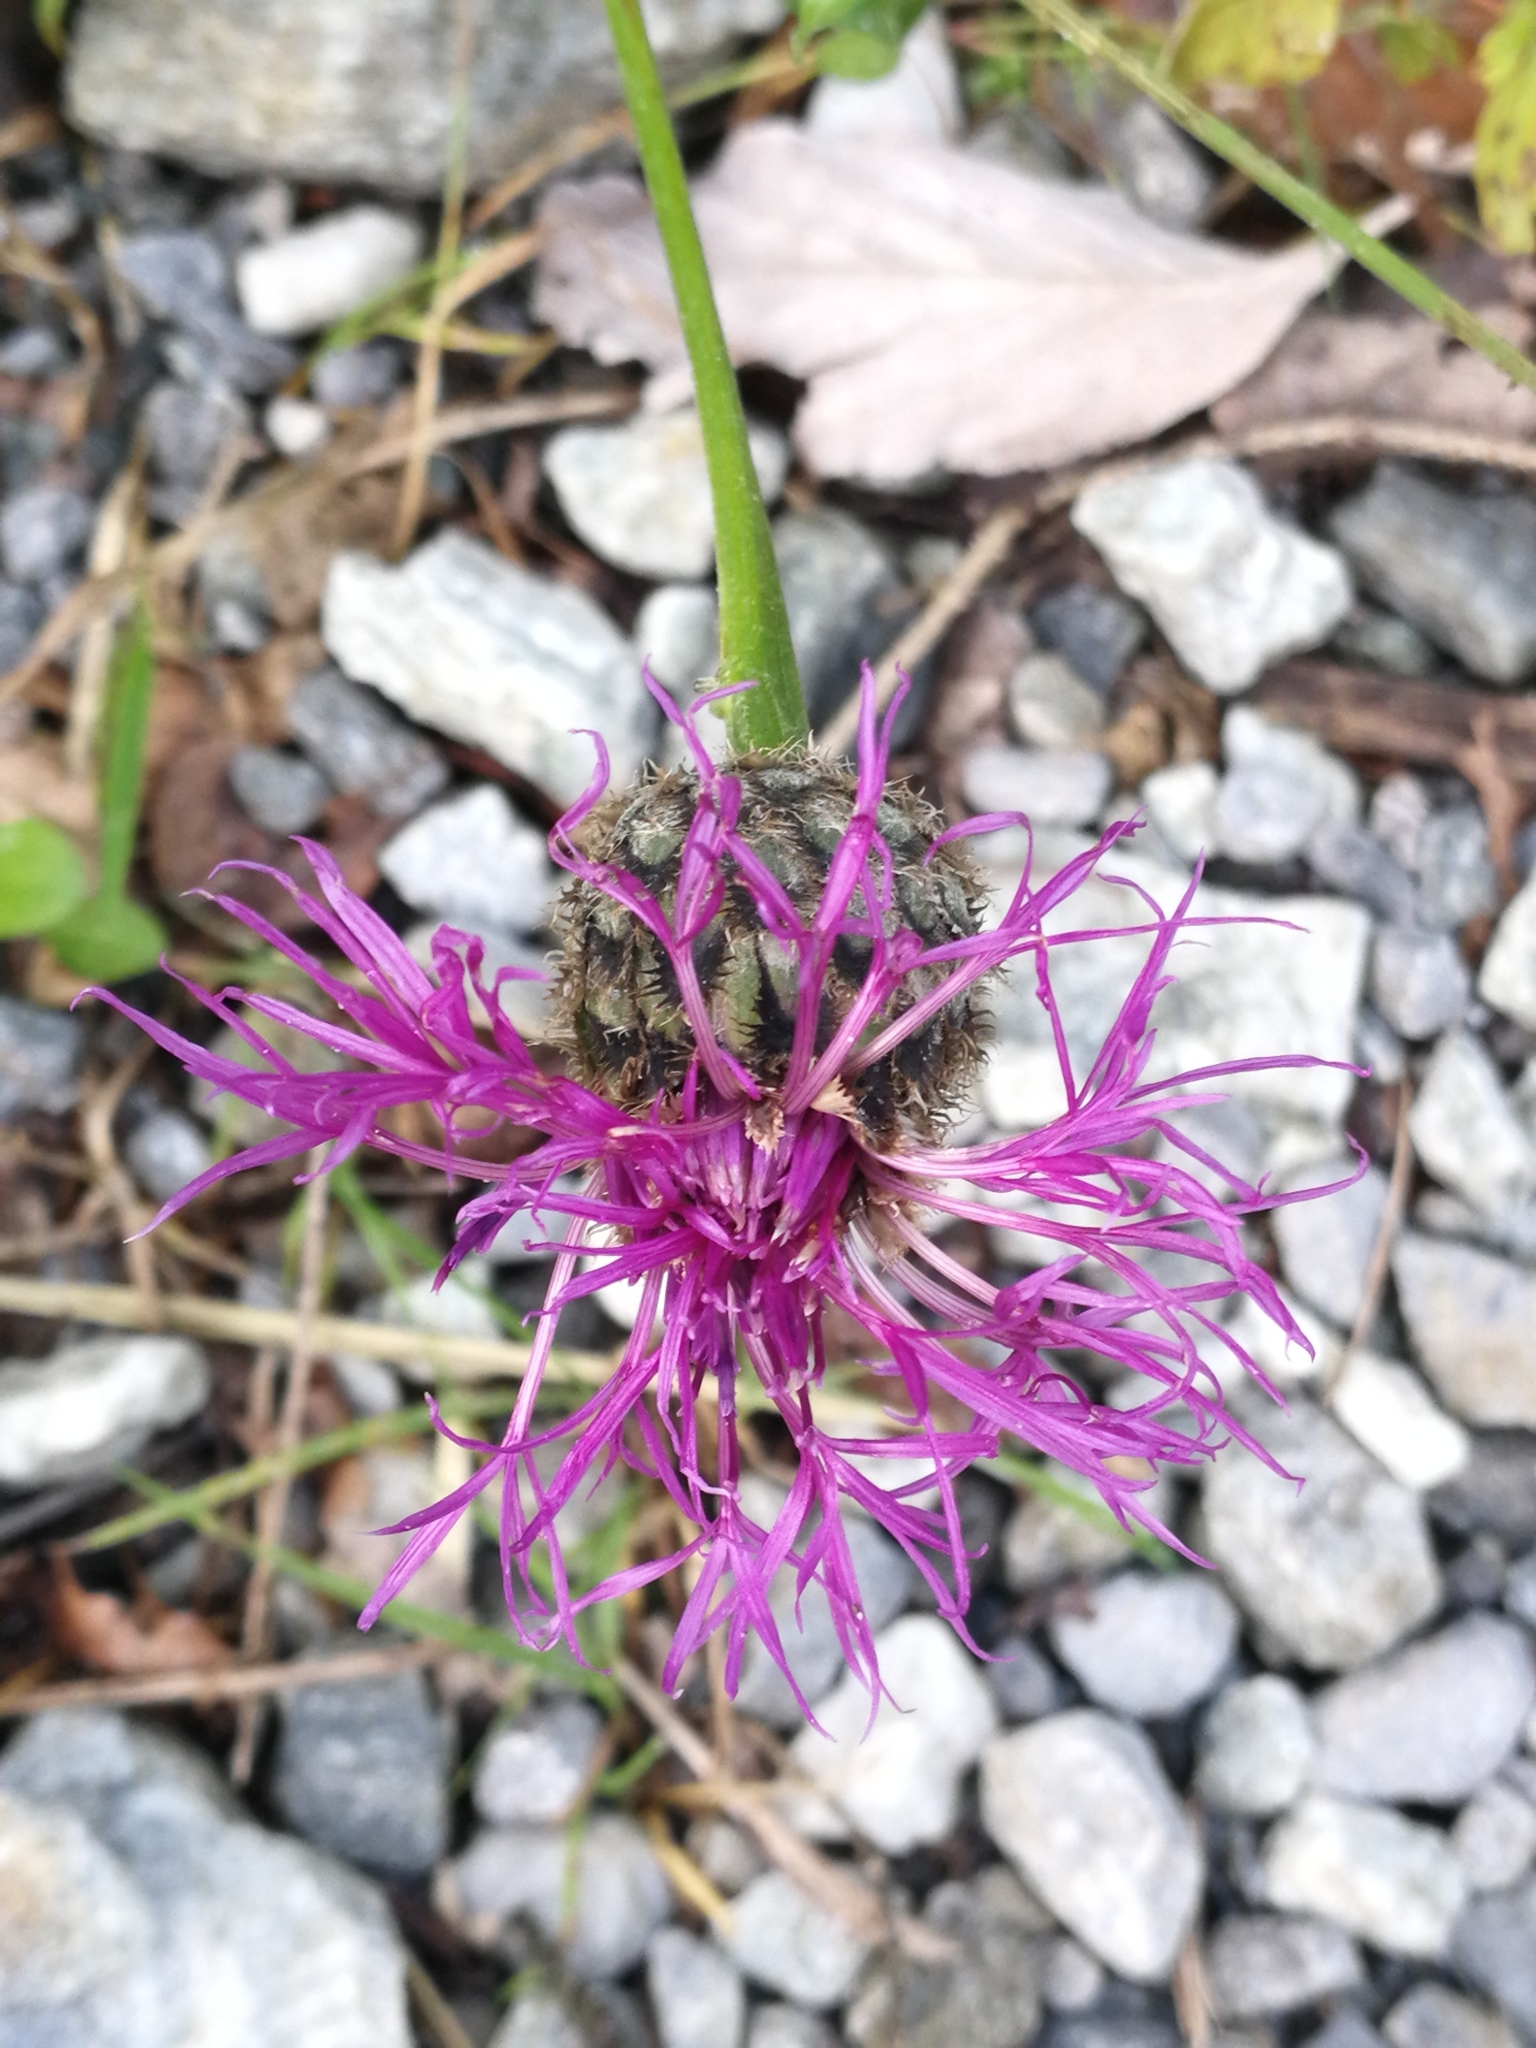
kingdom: Plantae
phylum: Tracheophyta
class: Magnoliopsida
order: Asterales
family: Asteraceae
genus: Centaurea
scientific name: Centaurea scabiosa
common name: Greater knapweed
